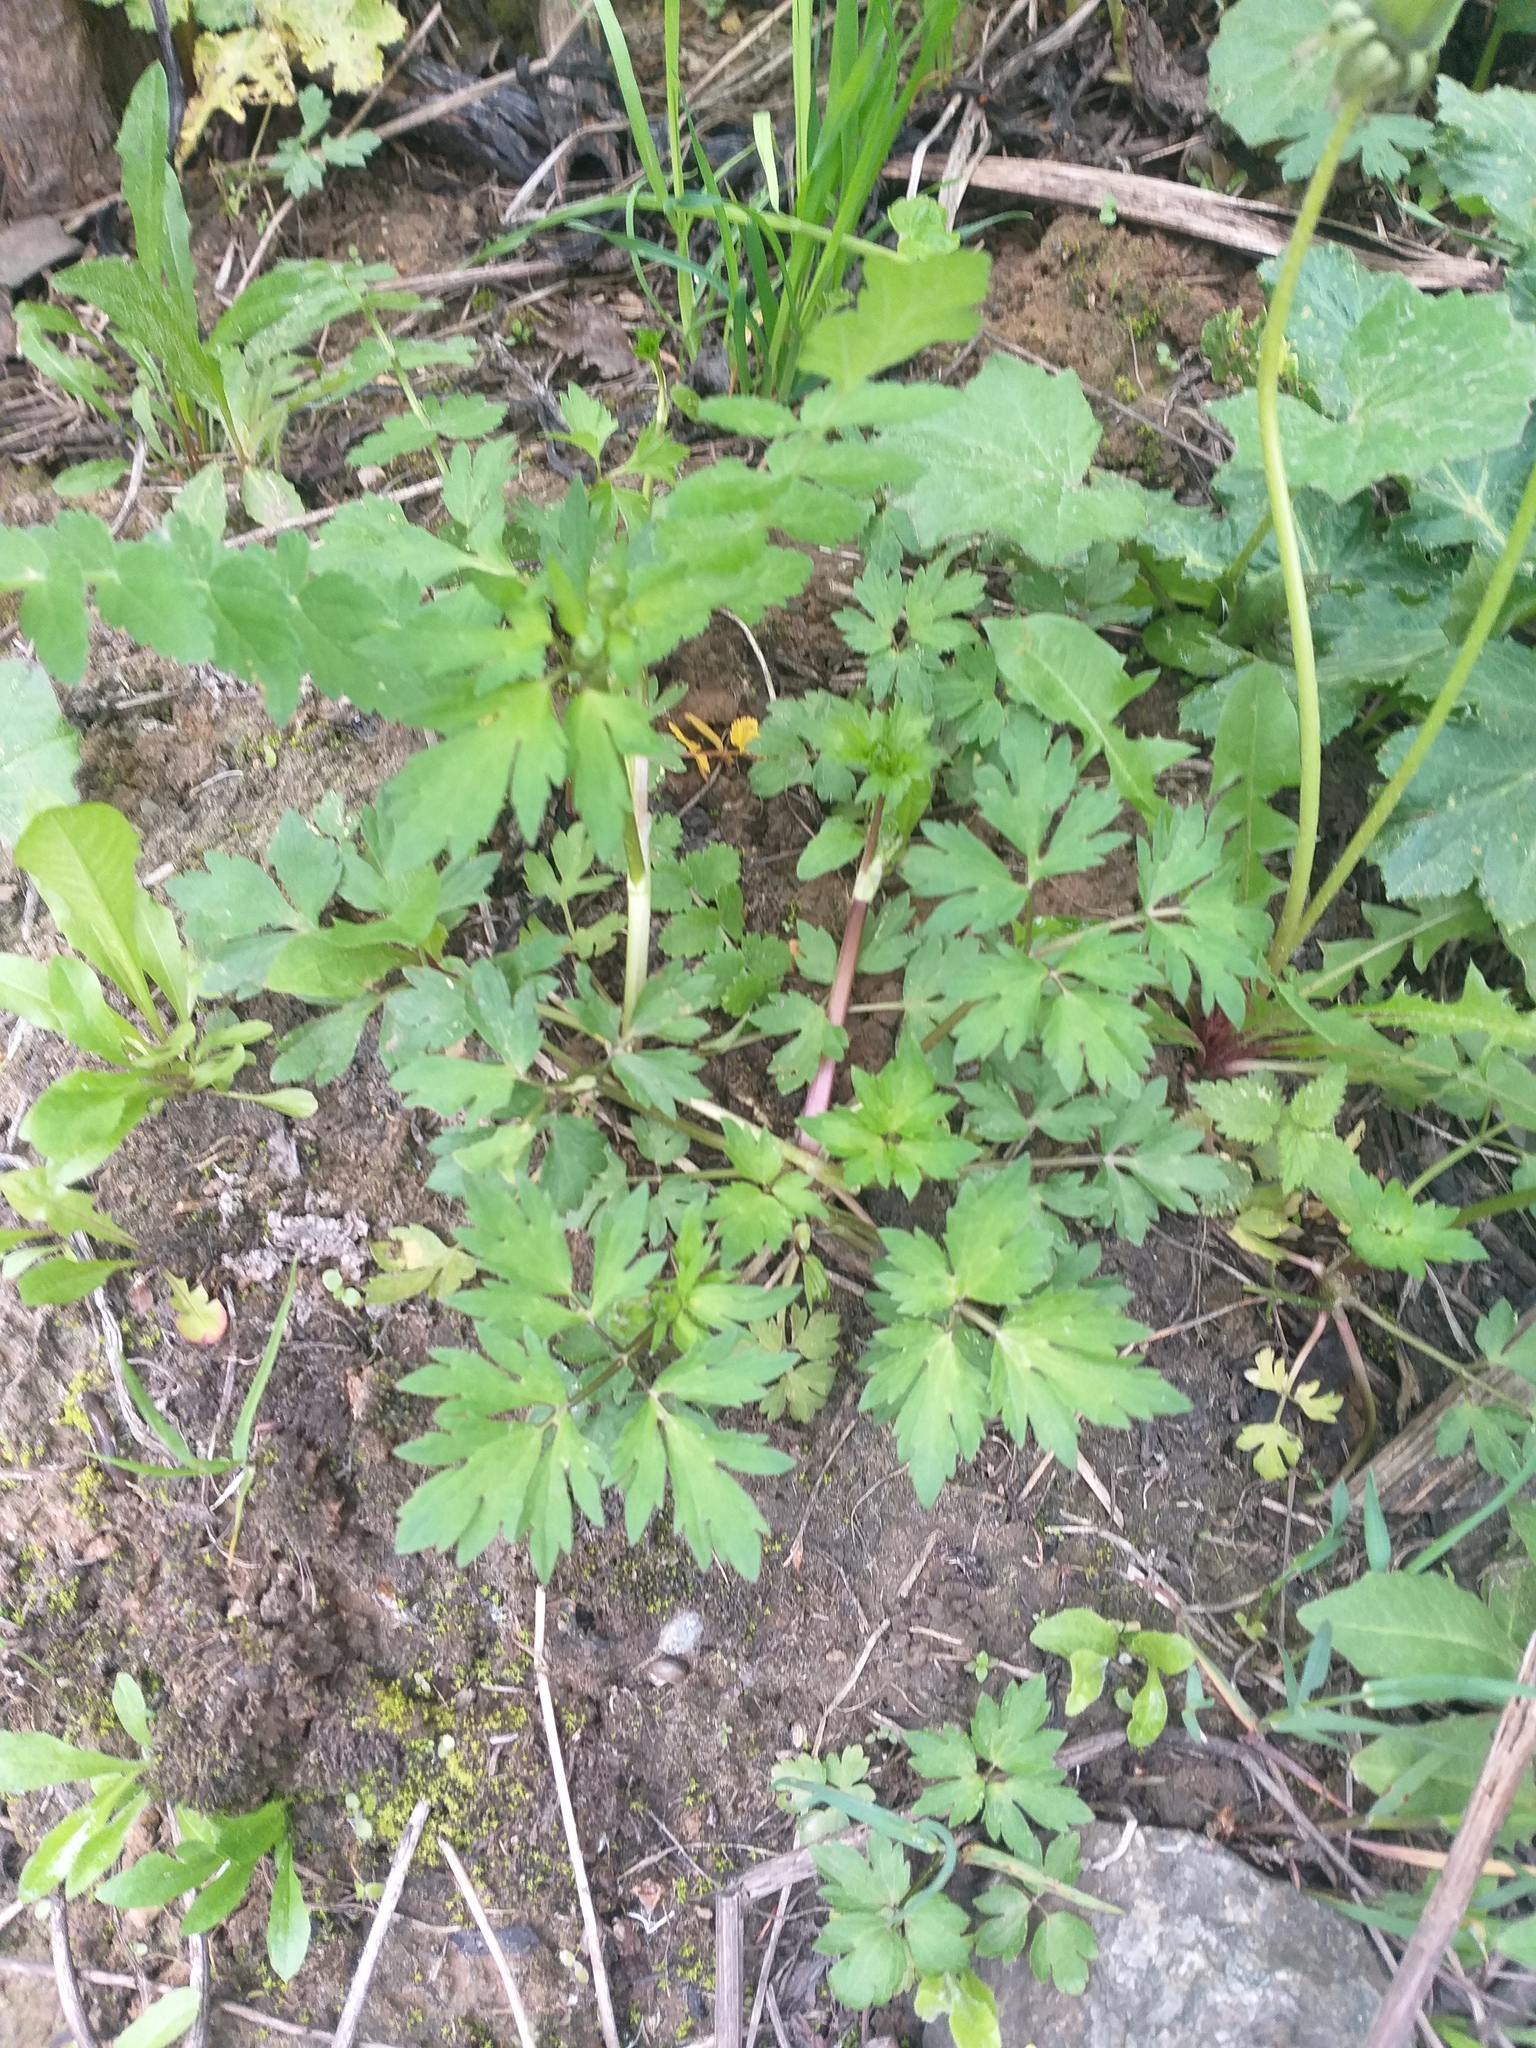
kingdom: Plantae
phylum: Tracheophyta
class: Magnoliopsida
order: Ranunculales
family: Ranunculaceae
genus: Ranunculus
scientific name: Ranunculus repens
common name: Creeping buttercup
